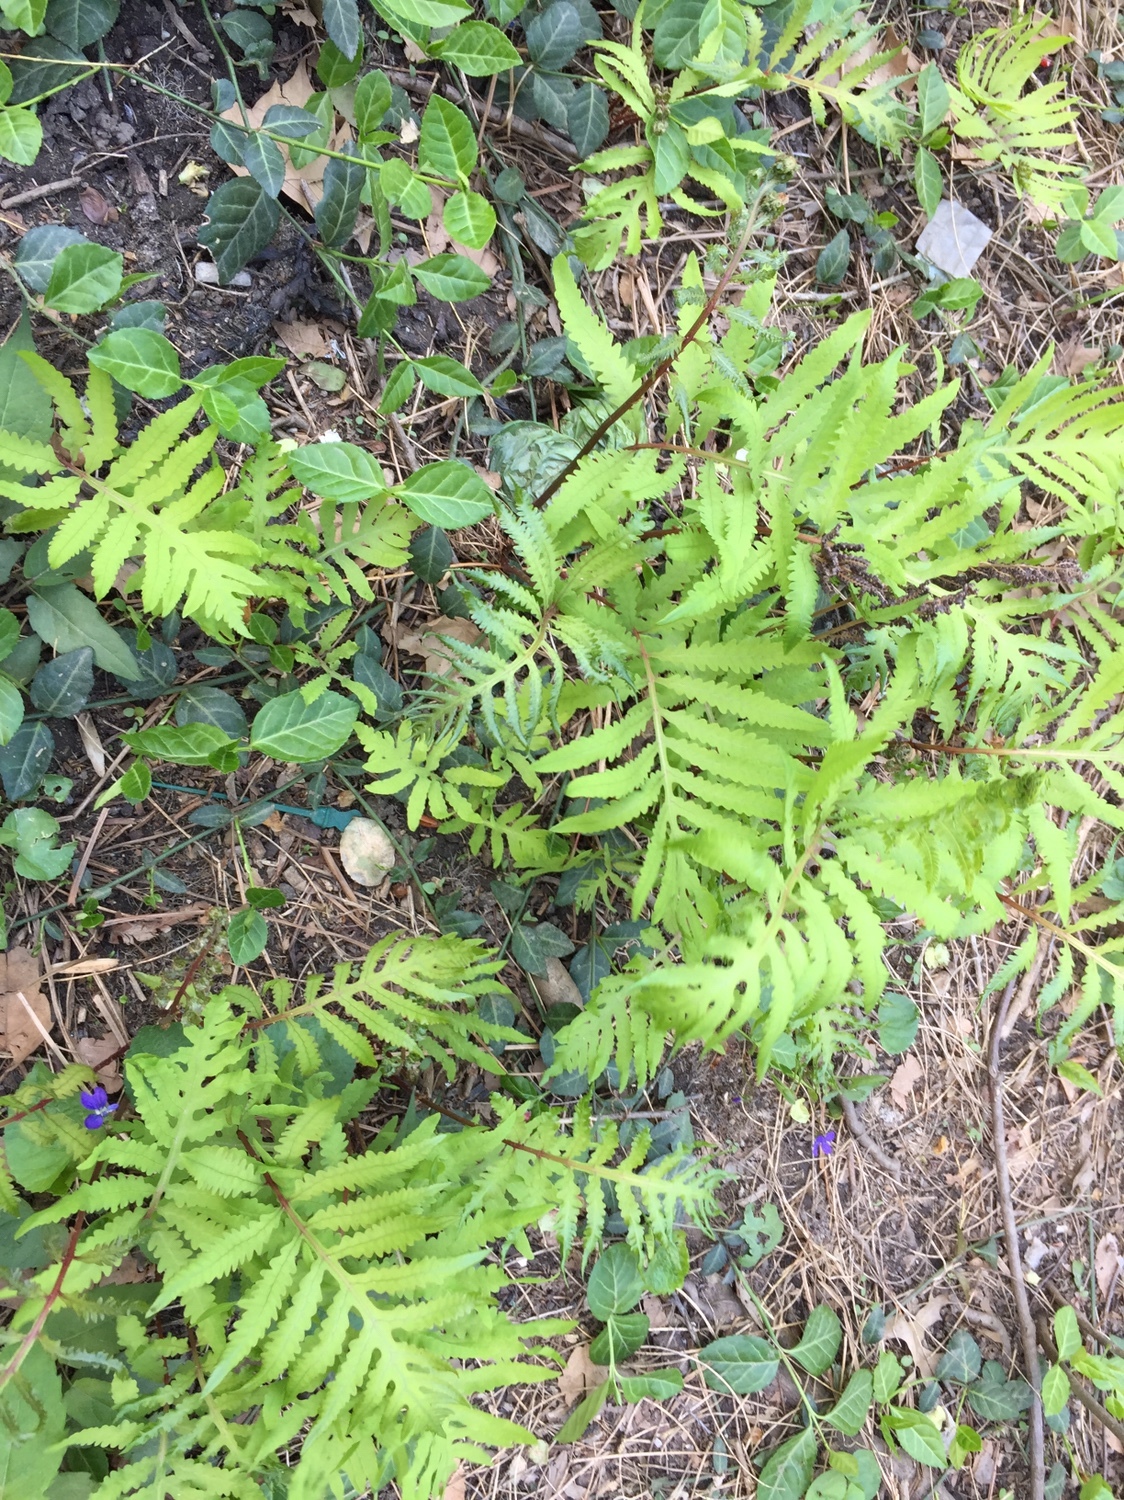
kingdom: Plantae
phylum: Tracheophyta
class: Polypodiopsida
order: Polypodiales
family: Onocleaceae
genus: Onoclea
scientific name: Onoclea sensibilis
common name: Sensitive fern
